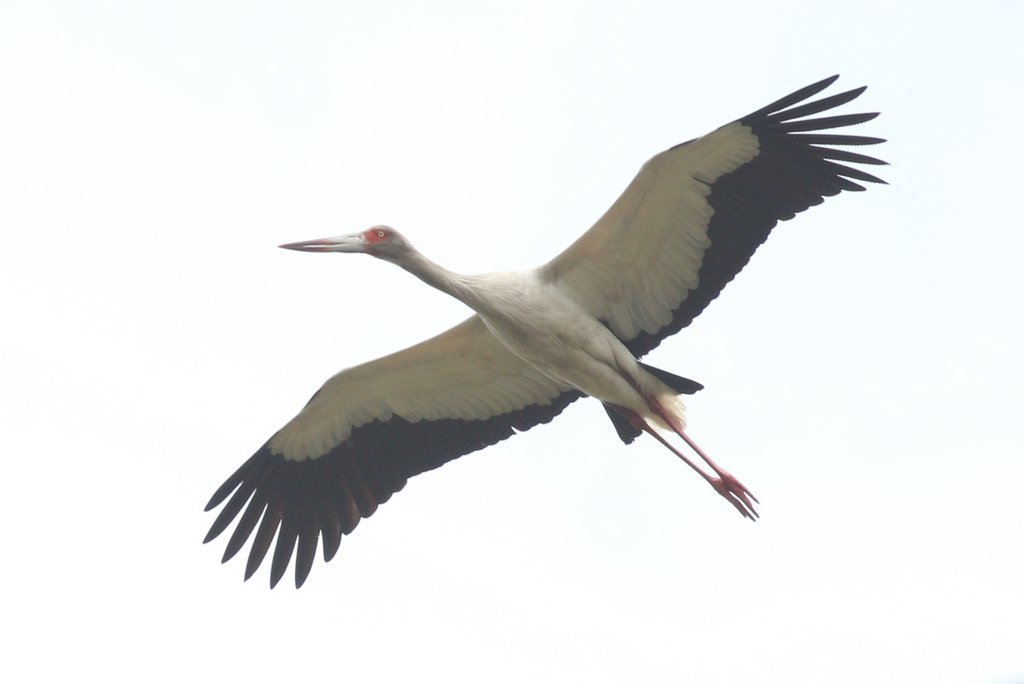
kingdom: Animalia
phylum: Chordata
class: Aves
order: Ciconiiformes
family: Ciconiidae
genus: Ciconia
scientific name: Ciconia maguari
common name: Maguari stork
